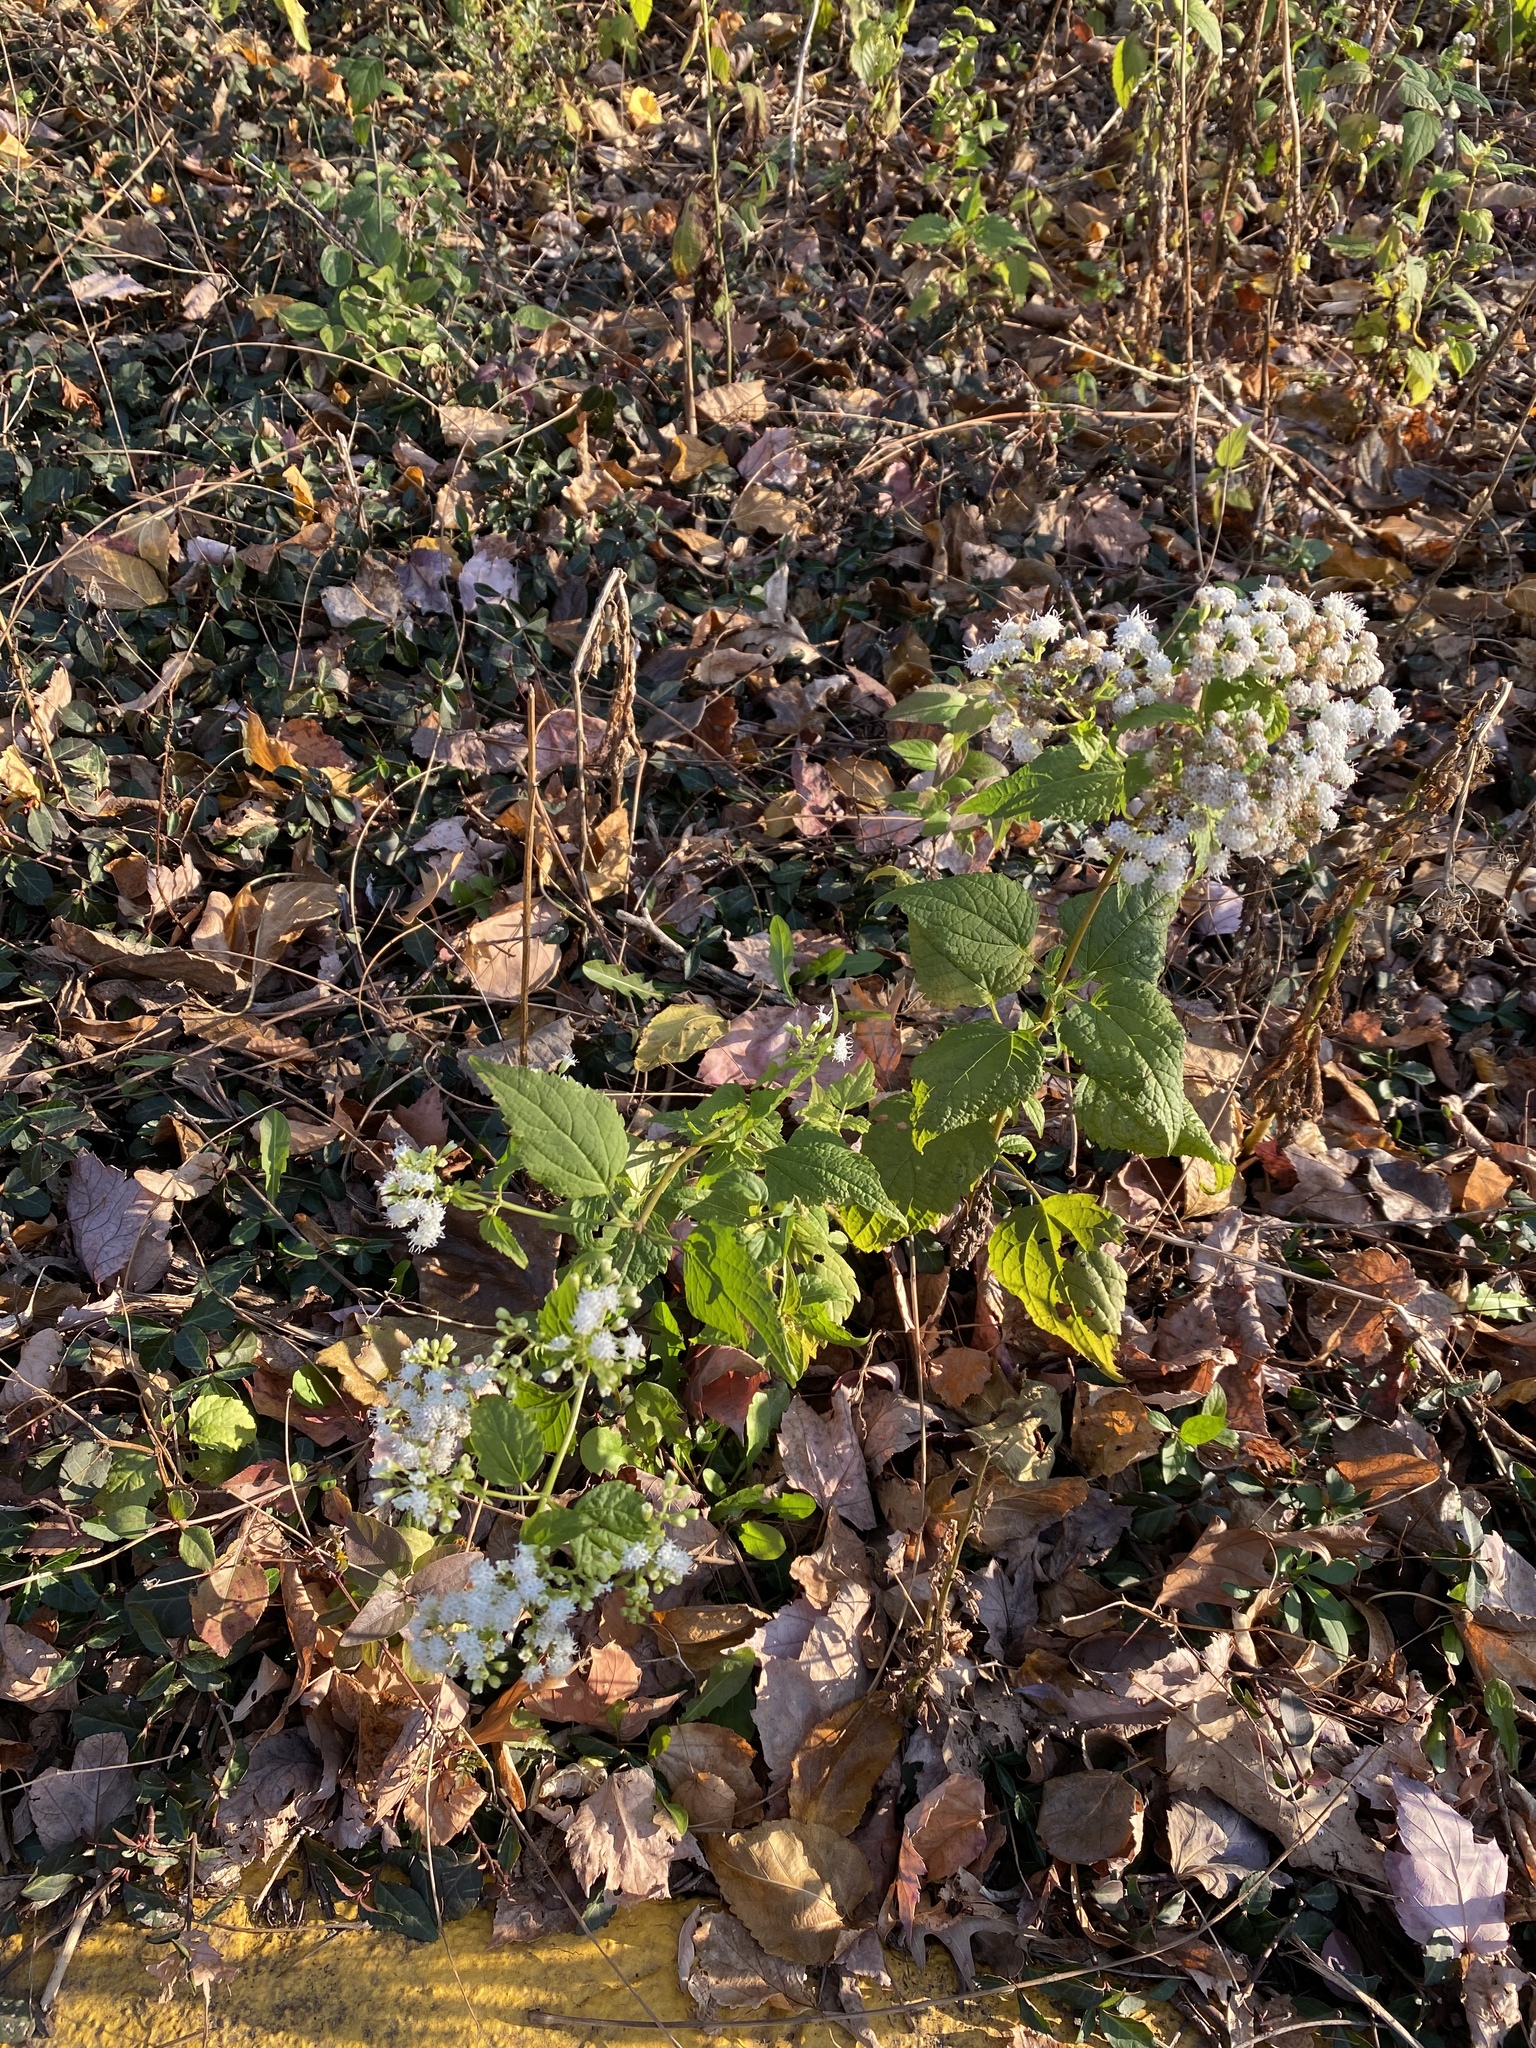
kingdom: Plantae
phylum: Tracheophyta
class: Magnoliopsida
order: Asterales
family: Asteraceae
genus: Ageratina
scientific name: Ageratina altissima
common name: White snakeroot
